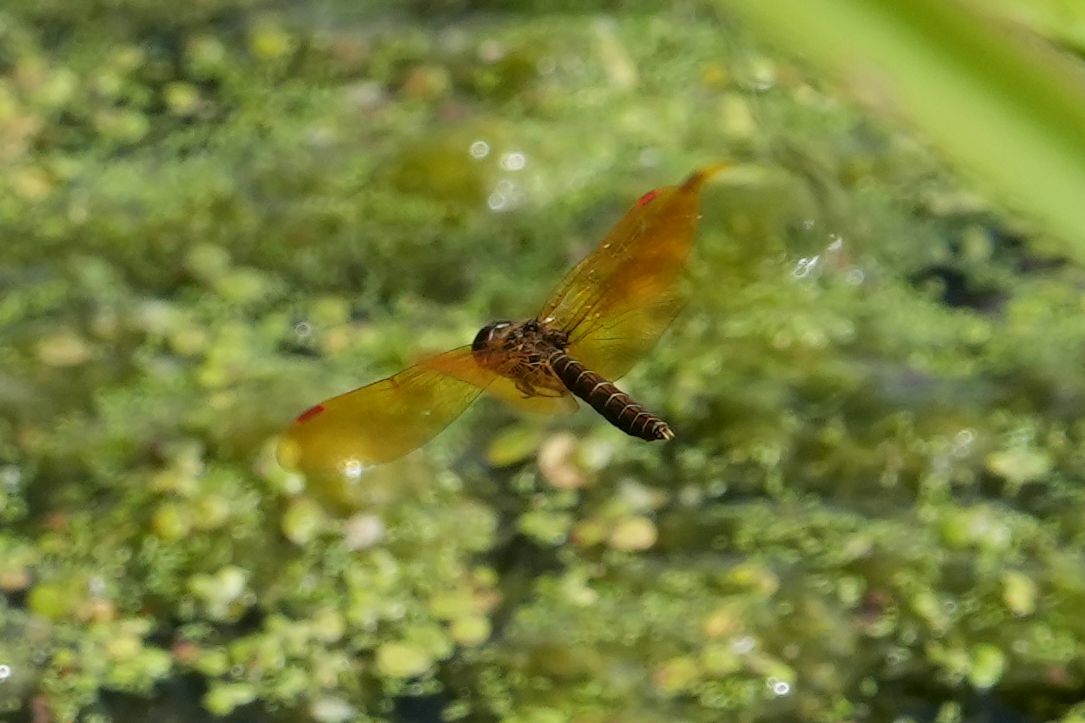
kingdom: Animalia
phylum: Arthropoda
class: Insecta
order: Odonata
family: Libellulidae
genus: Perithemis
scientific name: Perithemis tenera
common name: Eastern amberwing
